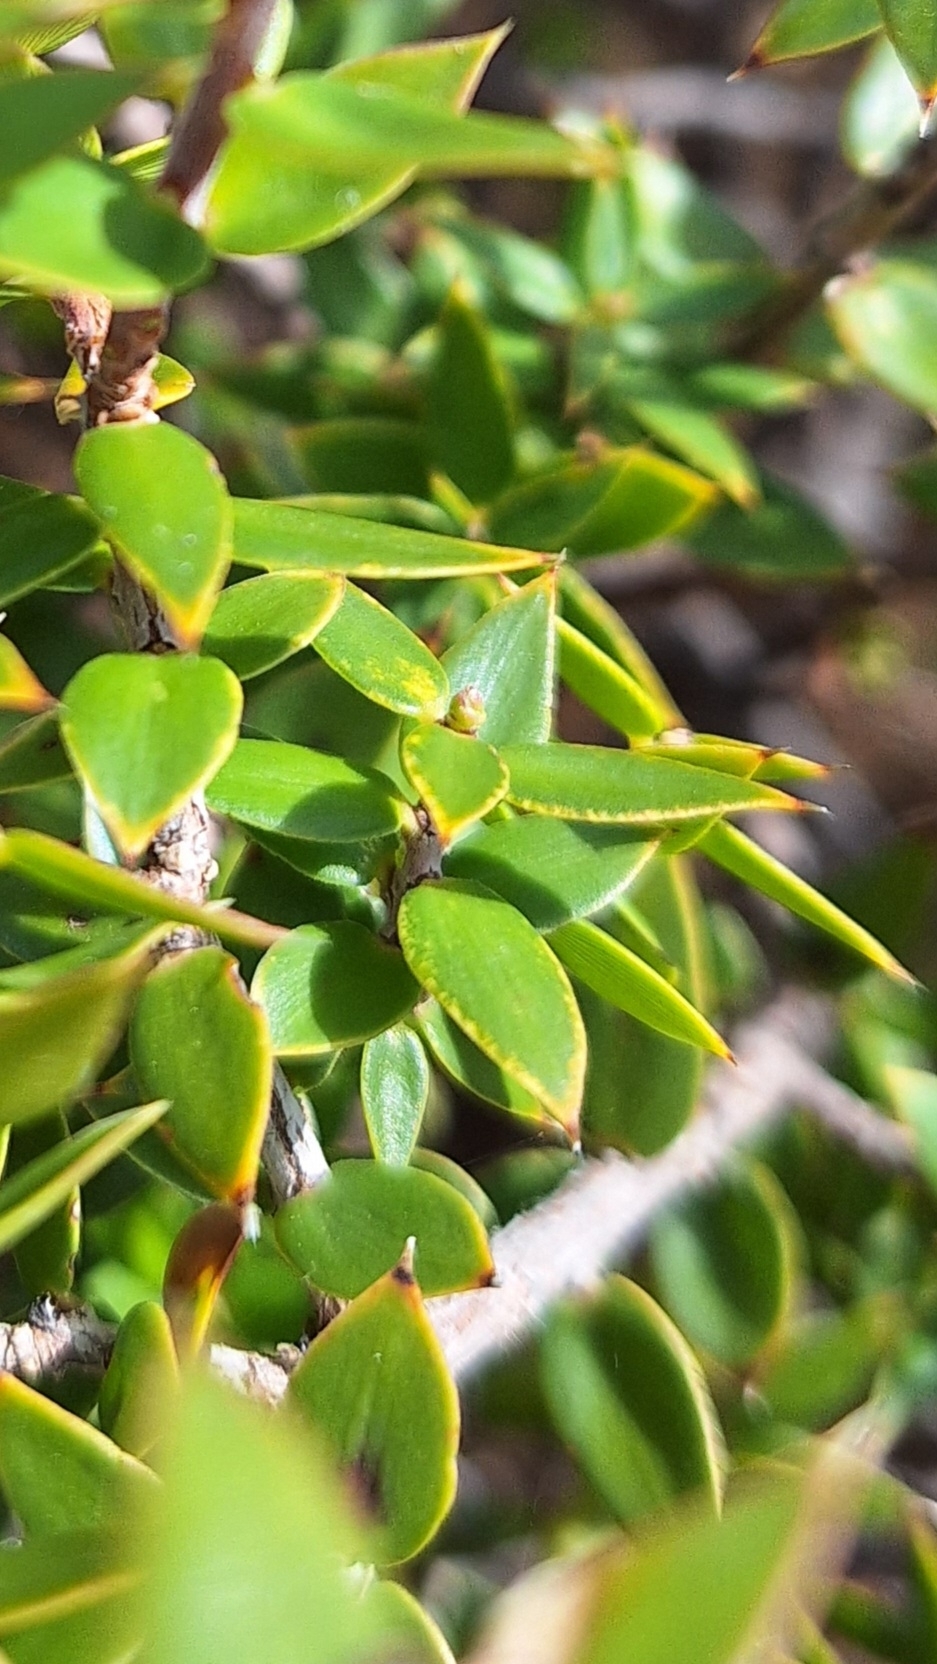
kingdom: Plantae
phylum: Tracheophyta
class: Magnoliopsida
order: Ericales
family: Ericaceae
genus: Acrotriche
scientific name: Acrotriche patula
